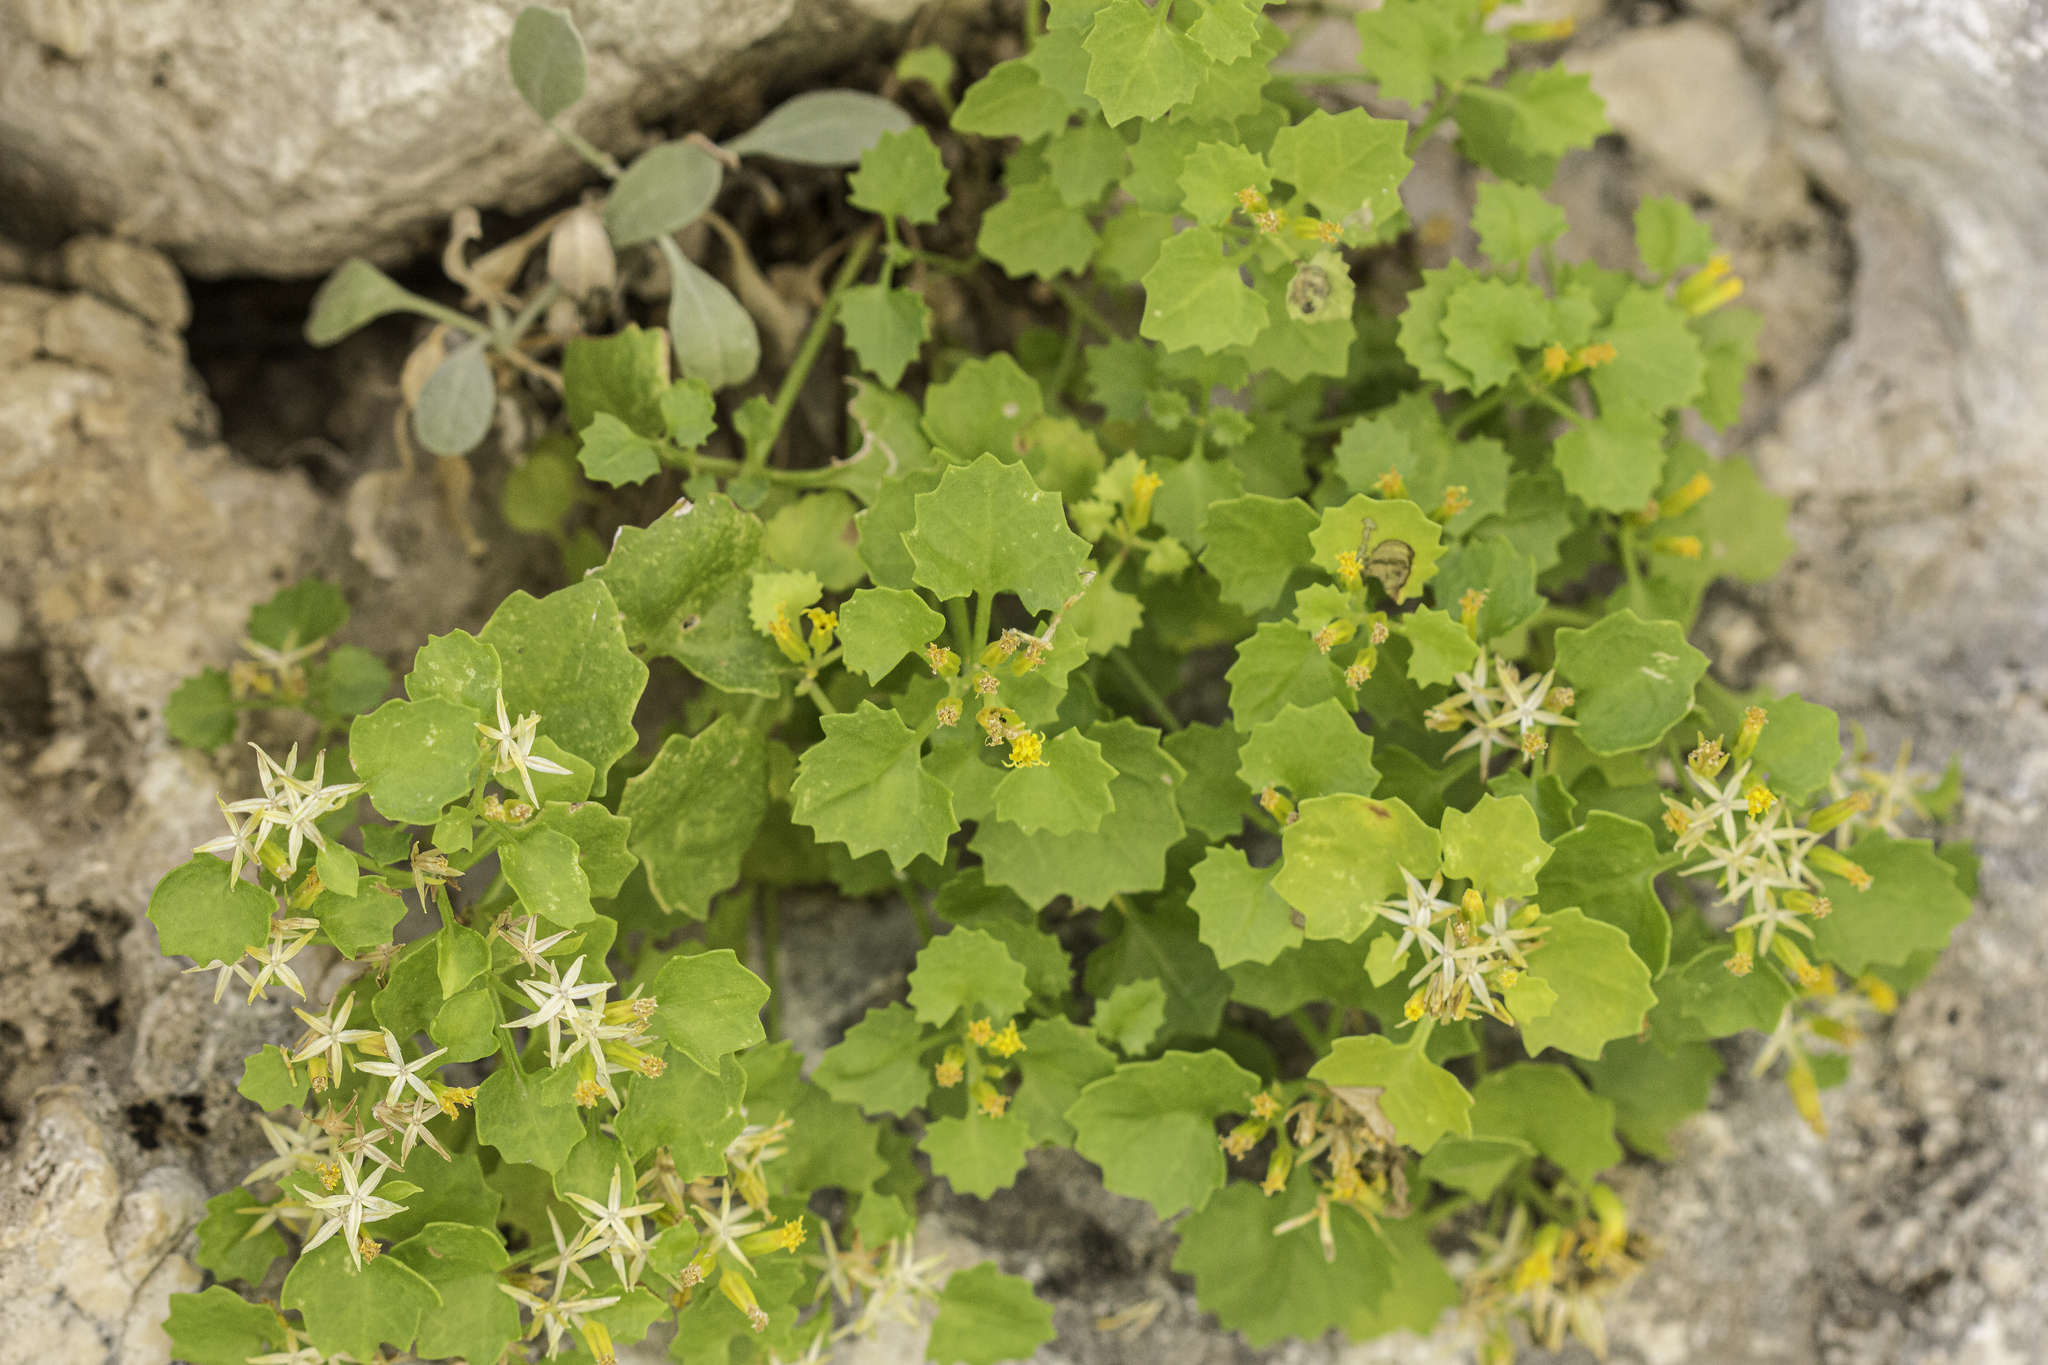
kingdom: Plantae
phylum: Tracheophyta
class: Magnoliopsida
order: Asterales
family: Asteraceae
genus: Laphamia
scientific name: Laphamia quinqueflora
